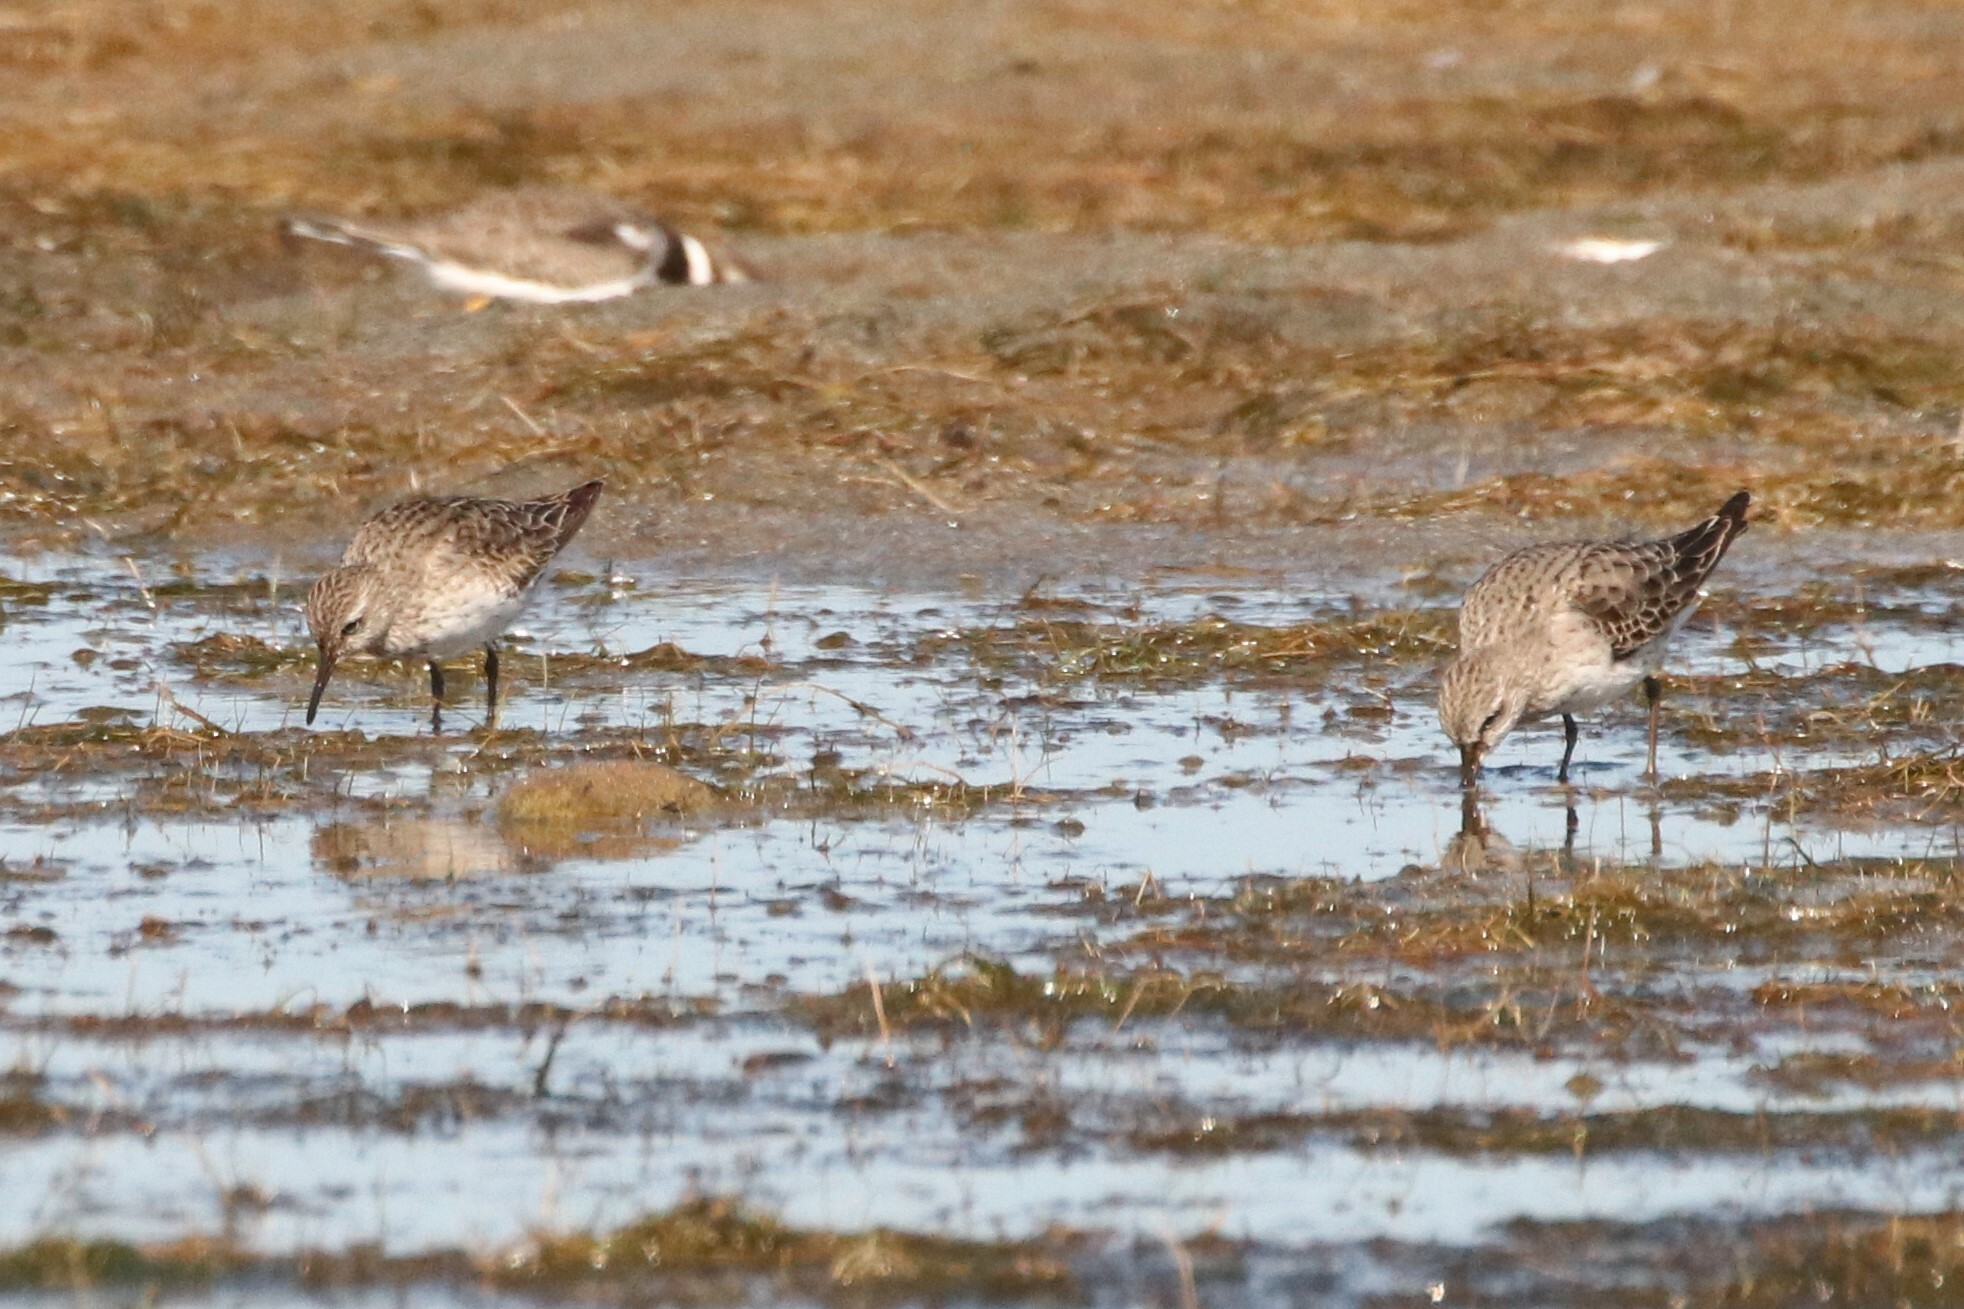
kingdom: Animalia
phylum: Chordata
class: Aves
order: Charadriiformes
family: Scolopacidae
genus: Calidris
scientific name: Calidris fuscicollis
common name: White-rumped sandpiper
